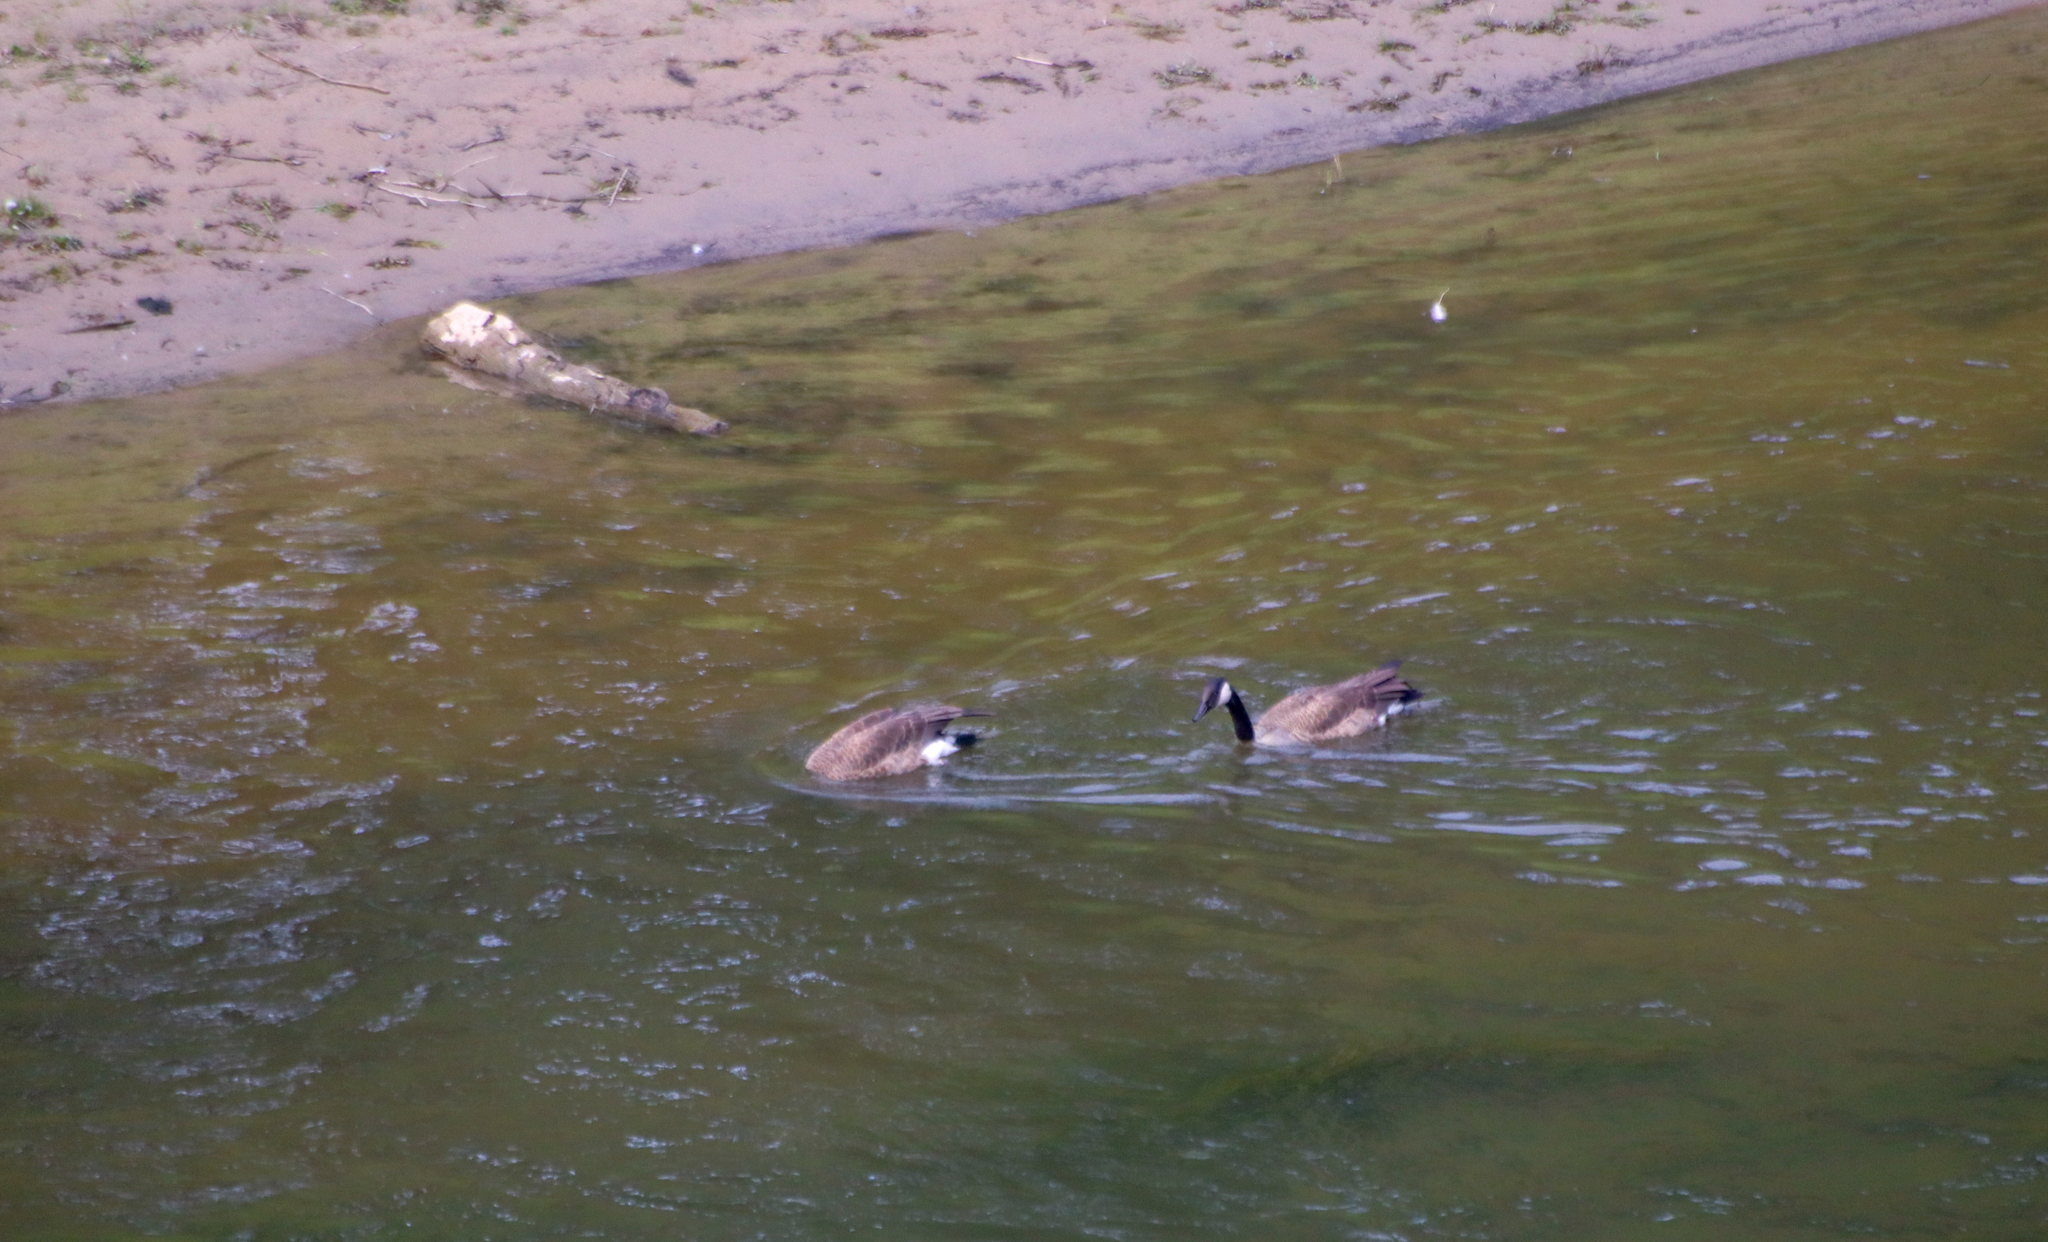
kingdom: Animalia
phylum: Chordata
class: Aves
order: Anseriformes
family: Anatidae
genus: Branta
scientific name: Branta canadensis
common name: Canada goose
